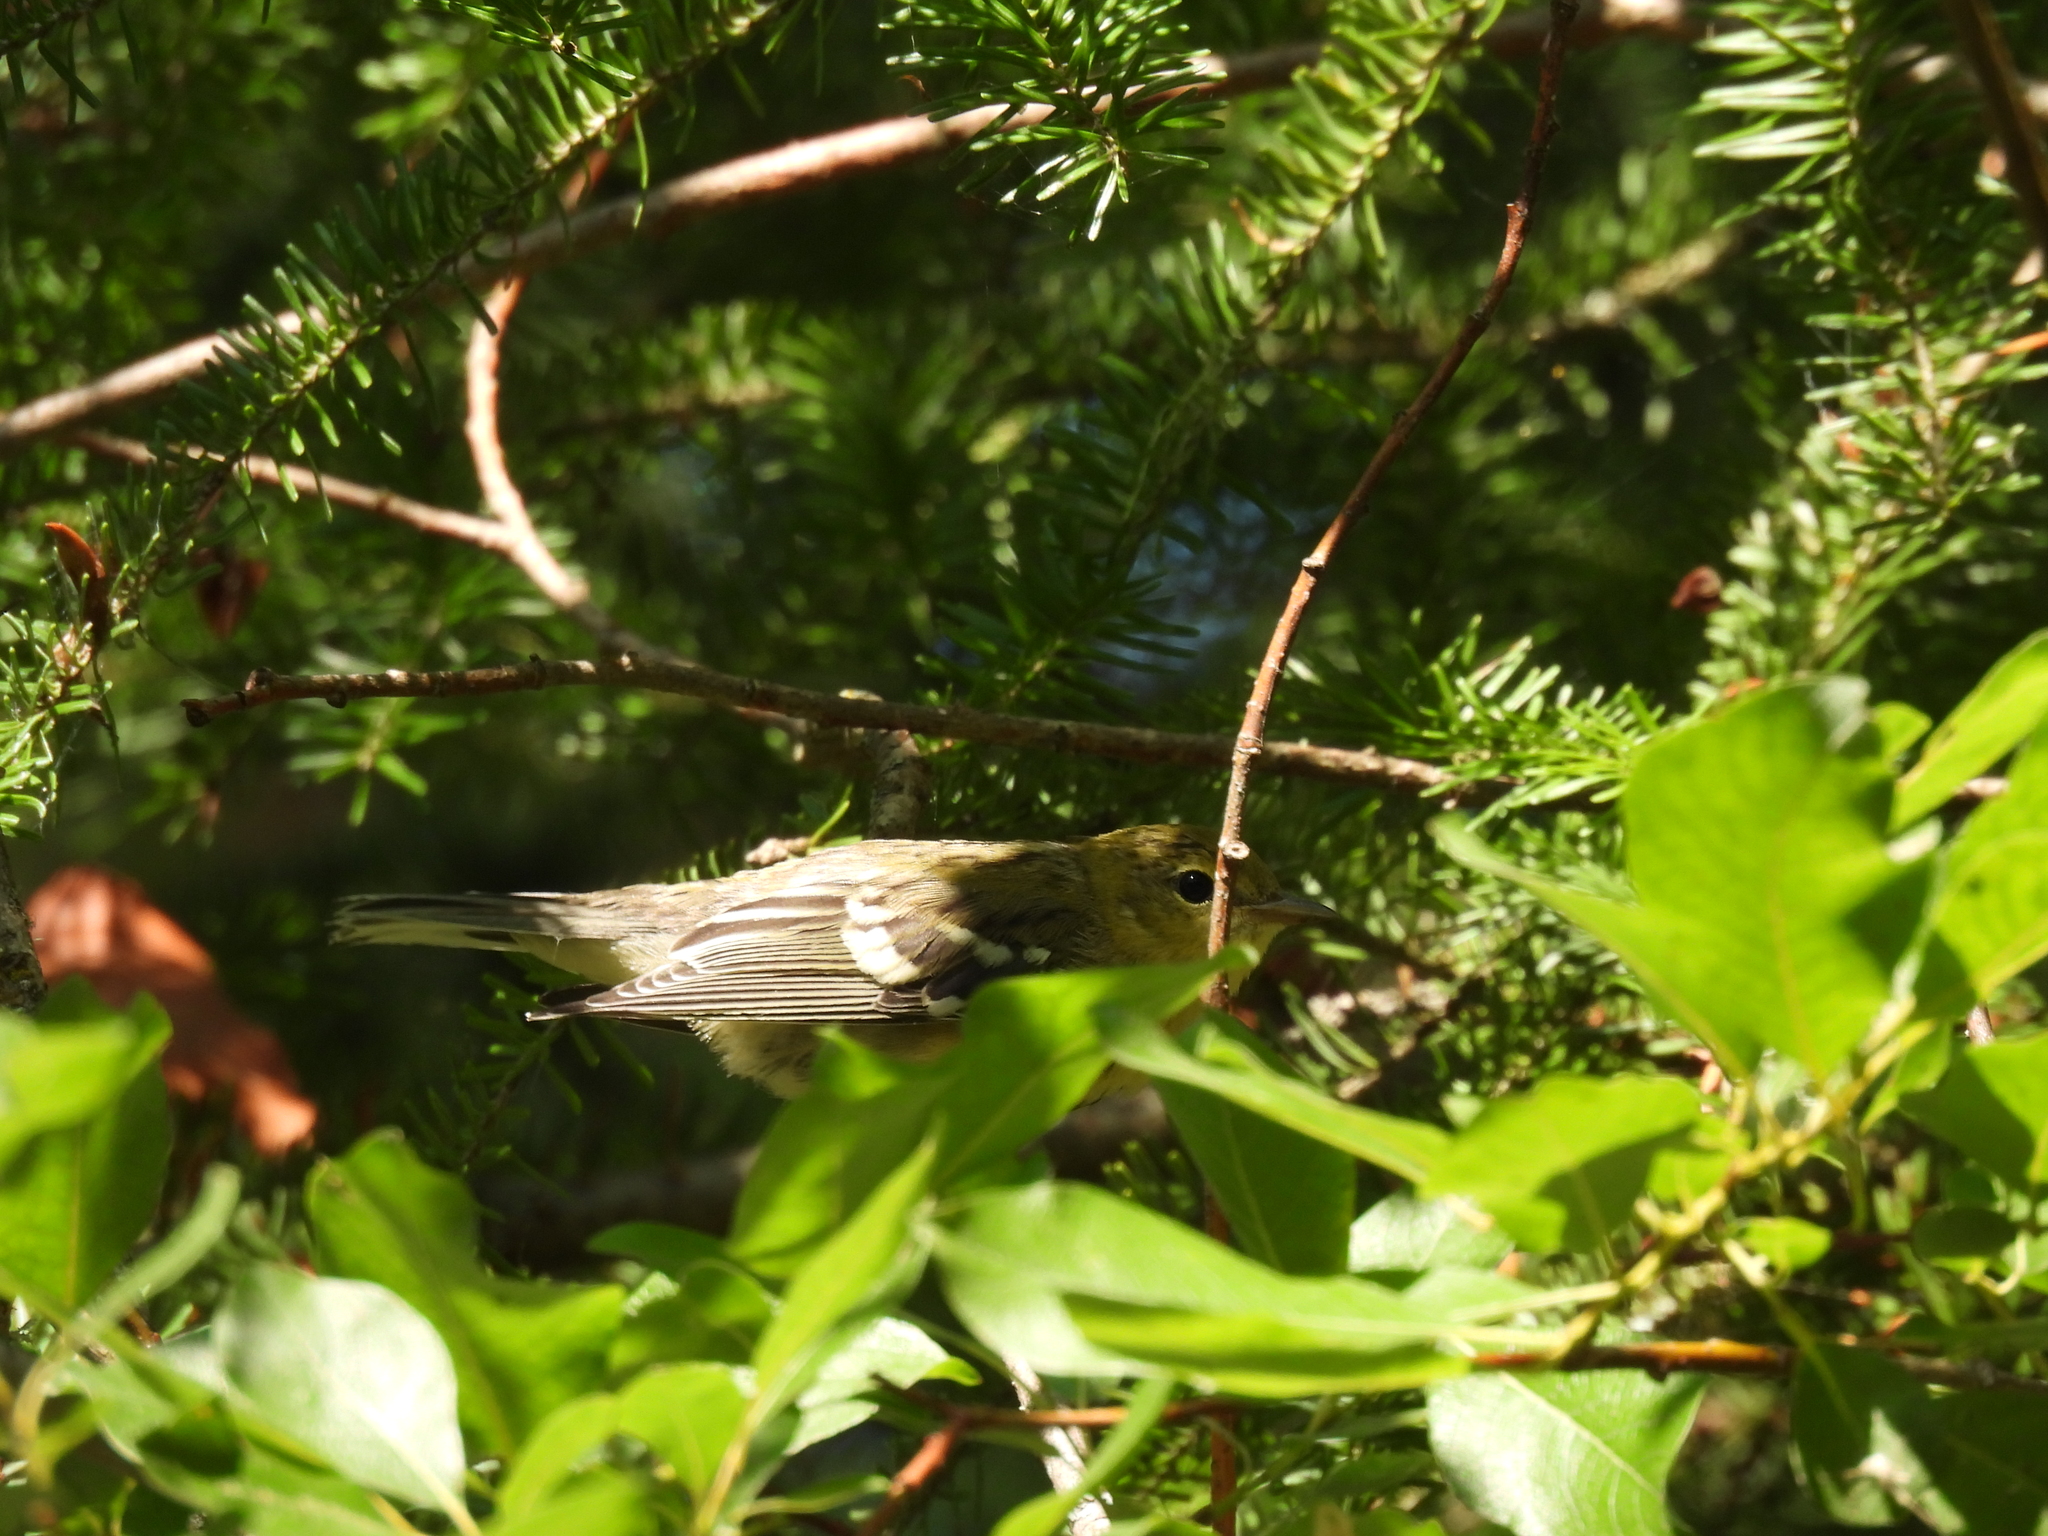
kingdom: Animalia
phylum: Chordata
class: Aves
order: Passeriformes
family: Parulidae
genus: Setophaga
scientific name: Setophaga striata
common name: Blackpoll warbler
